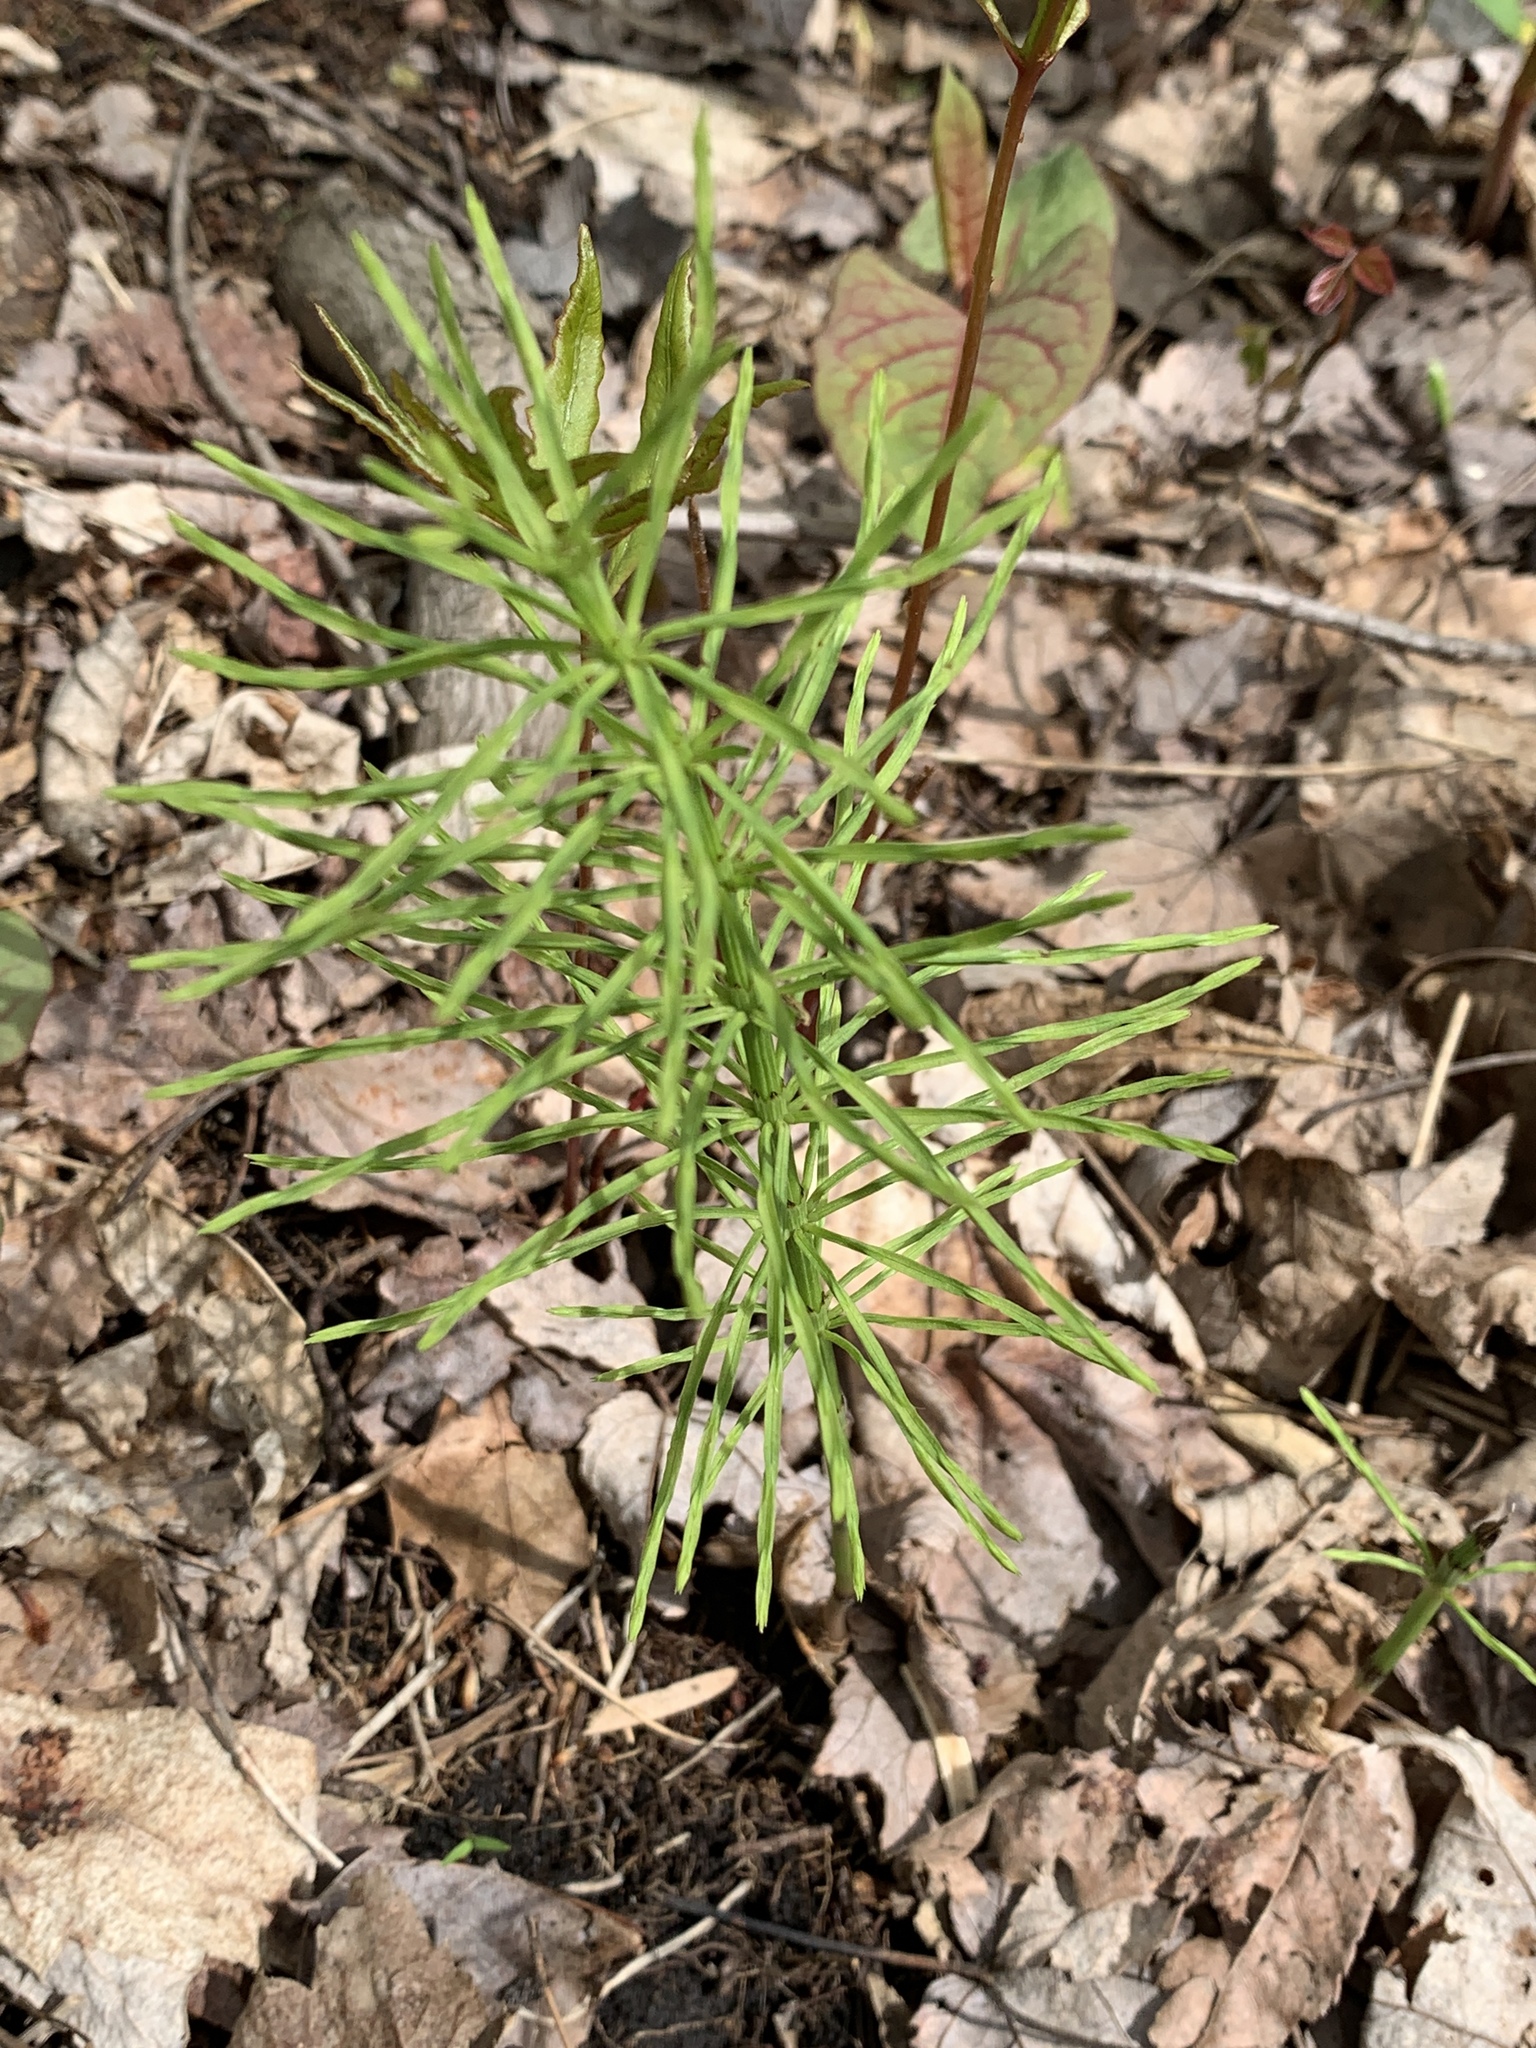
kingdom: Plantae
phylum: Tracheophyta
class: Polypodiopsida
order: Equisetales
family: Equisetaceae
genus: Equisetum
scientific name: Equisetum arvense
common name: Field horsetail
